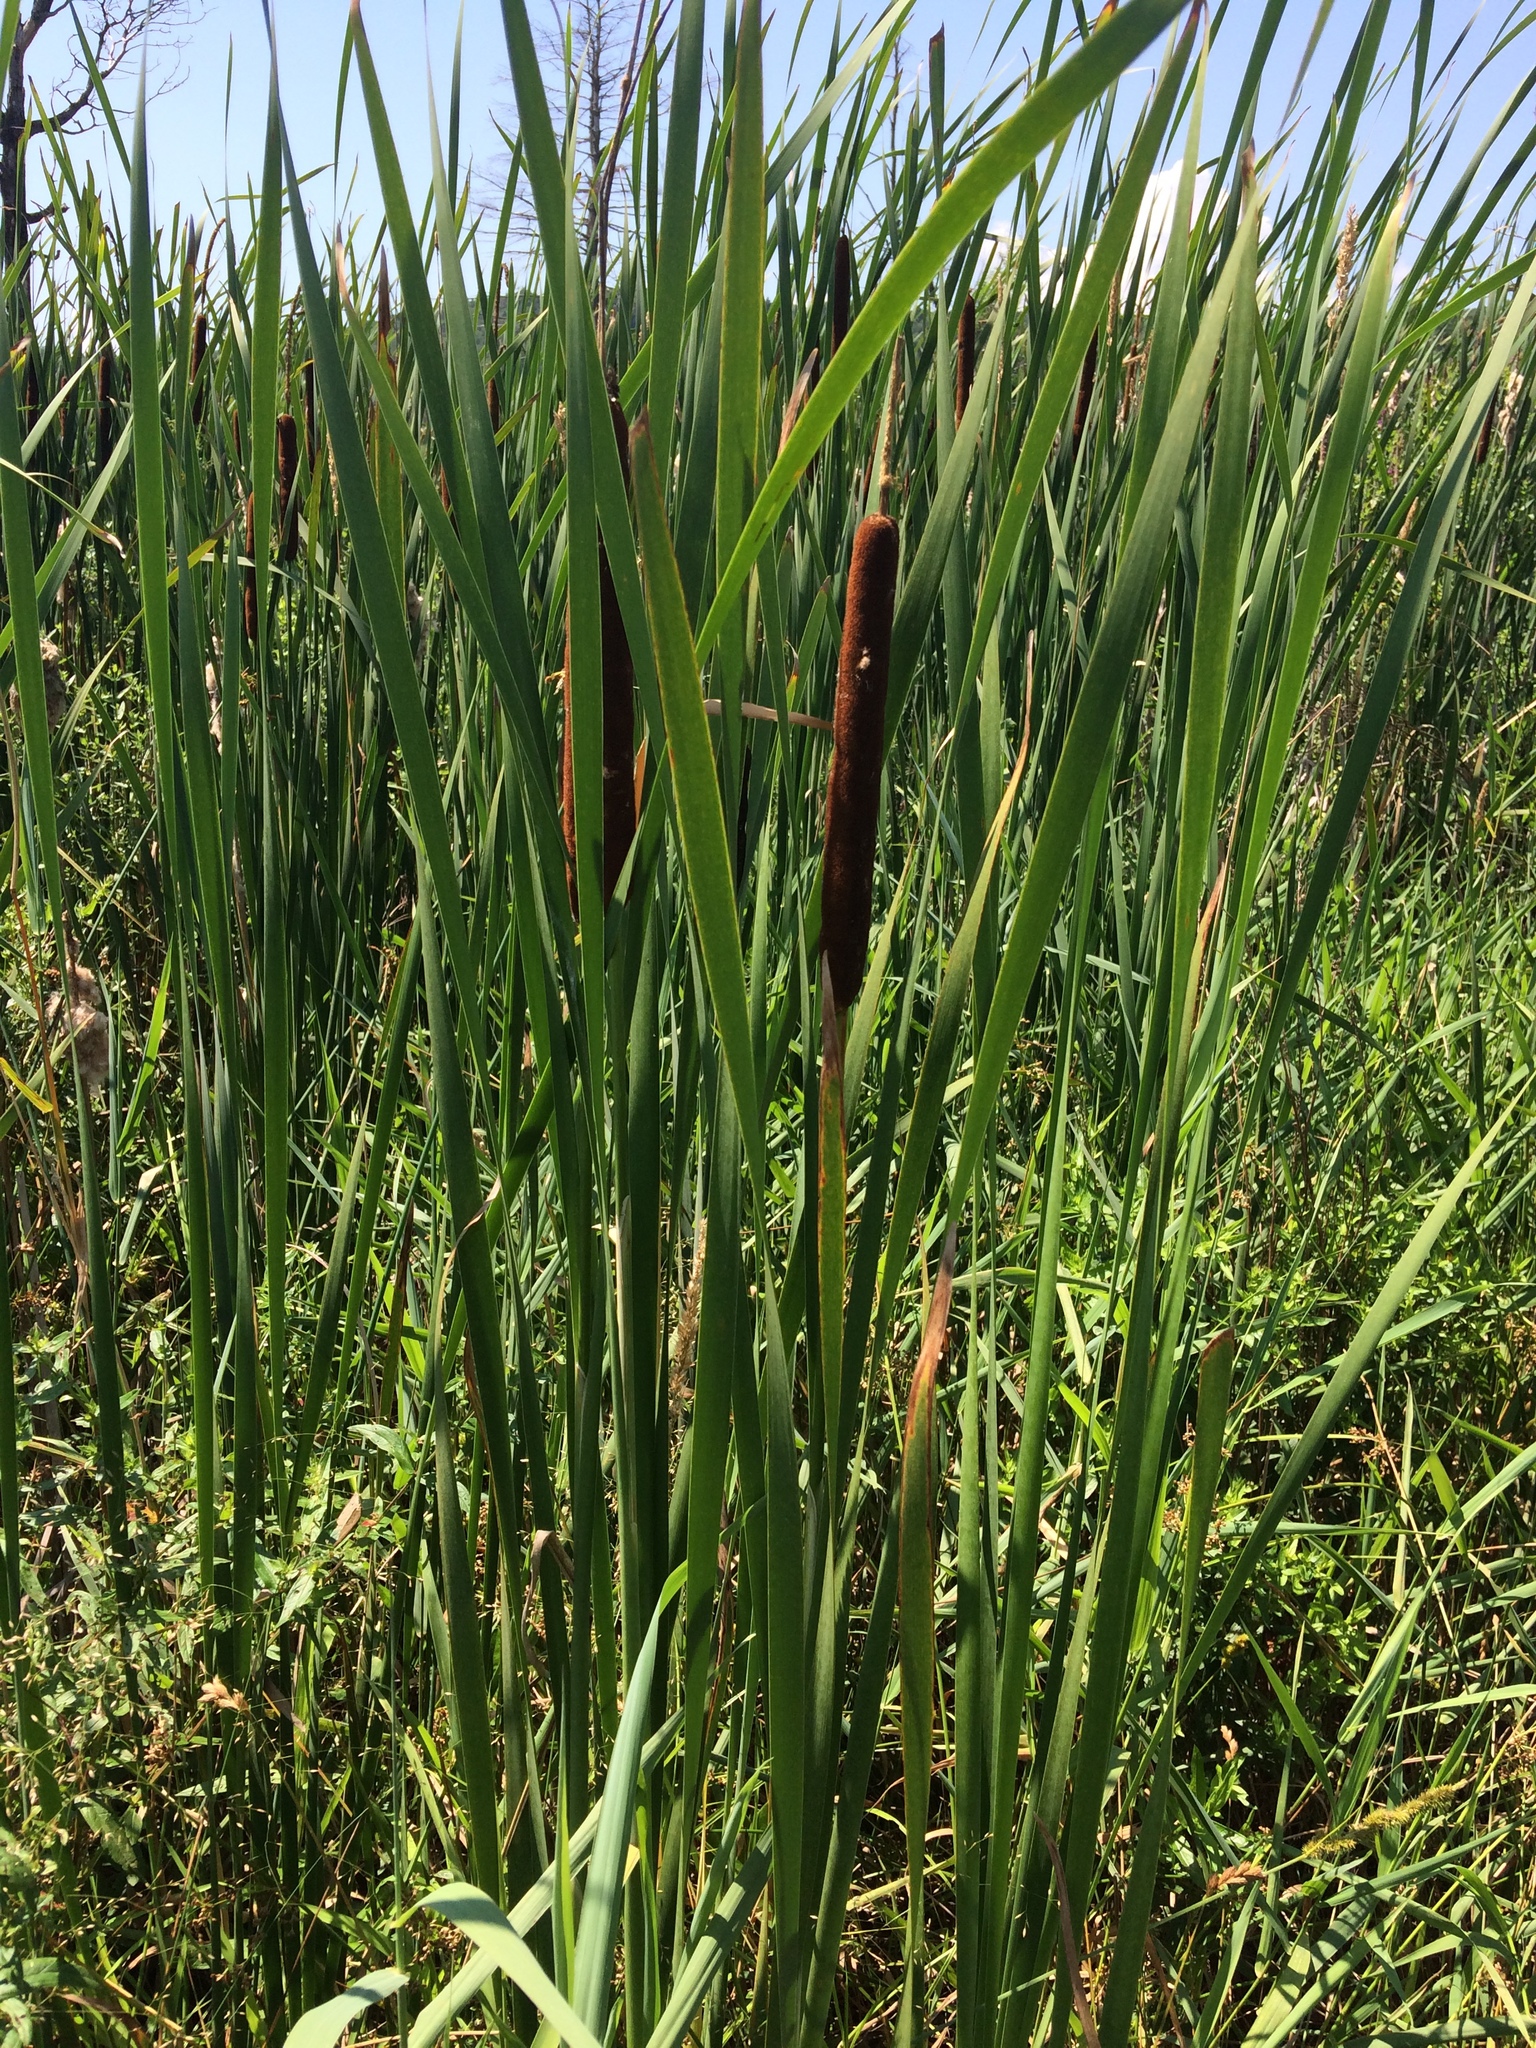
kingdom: Plantae
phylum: Tracheophyta
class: Liliopsida
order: Poales
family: Typhaceae
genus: Typha
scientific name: Typha angustifolia
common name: Lesser bulrush
